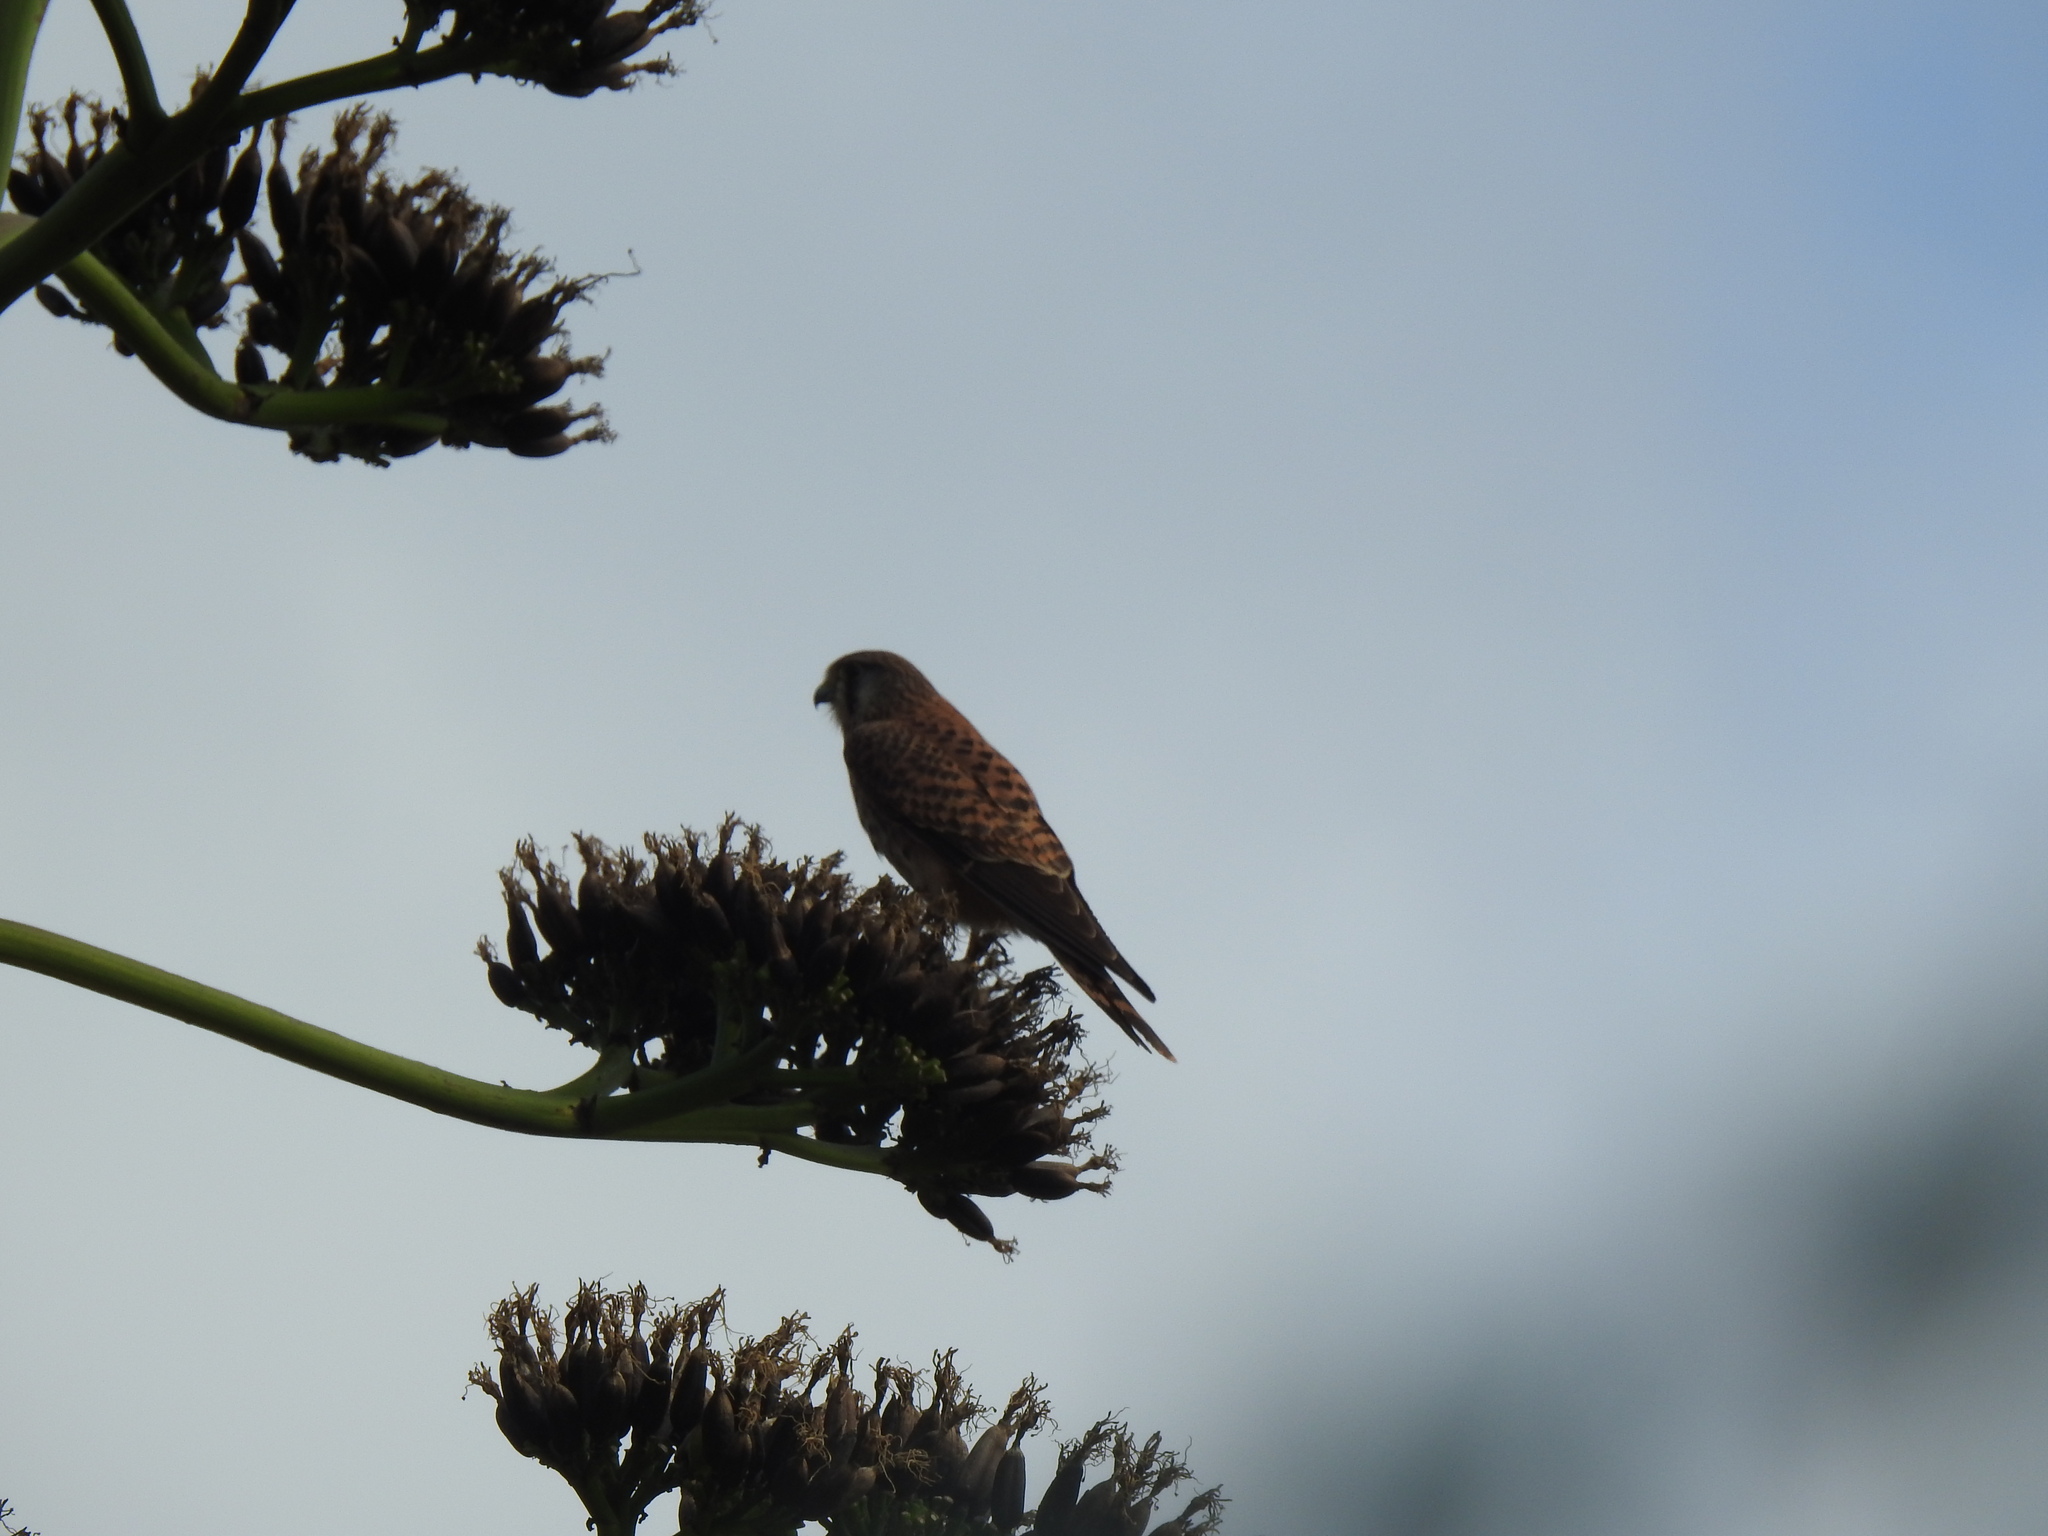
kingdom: Animalia
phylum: Chordata
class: Aves
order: Falconiformes
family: Falconidae
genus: Falco
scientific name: Falco tinnunculus
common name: Common kestrel
